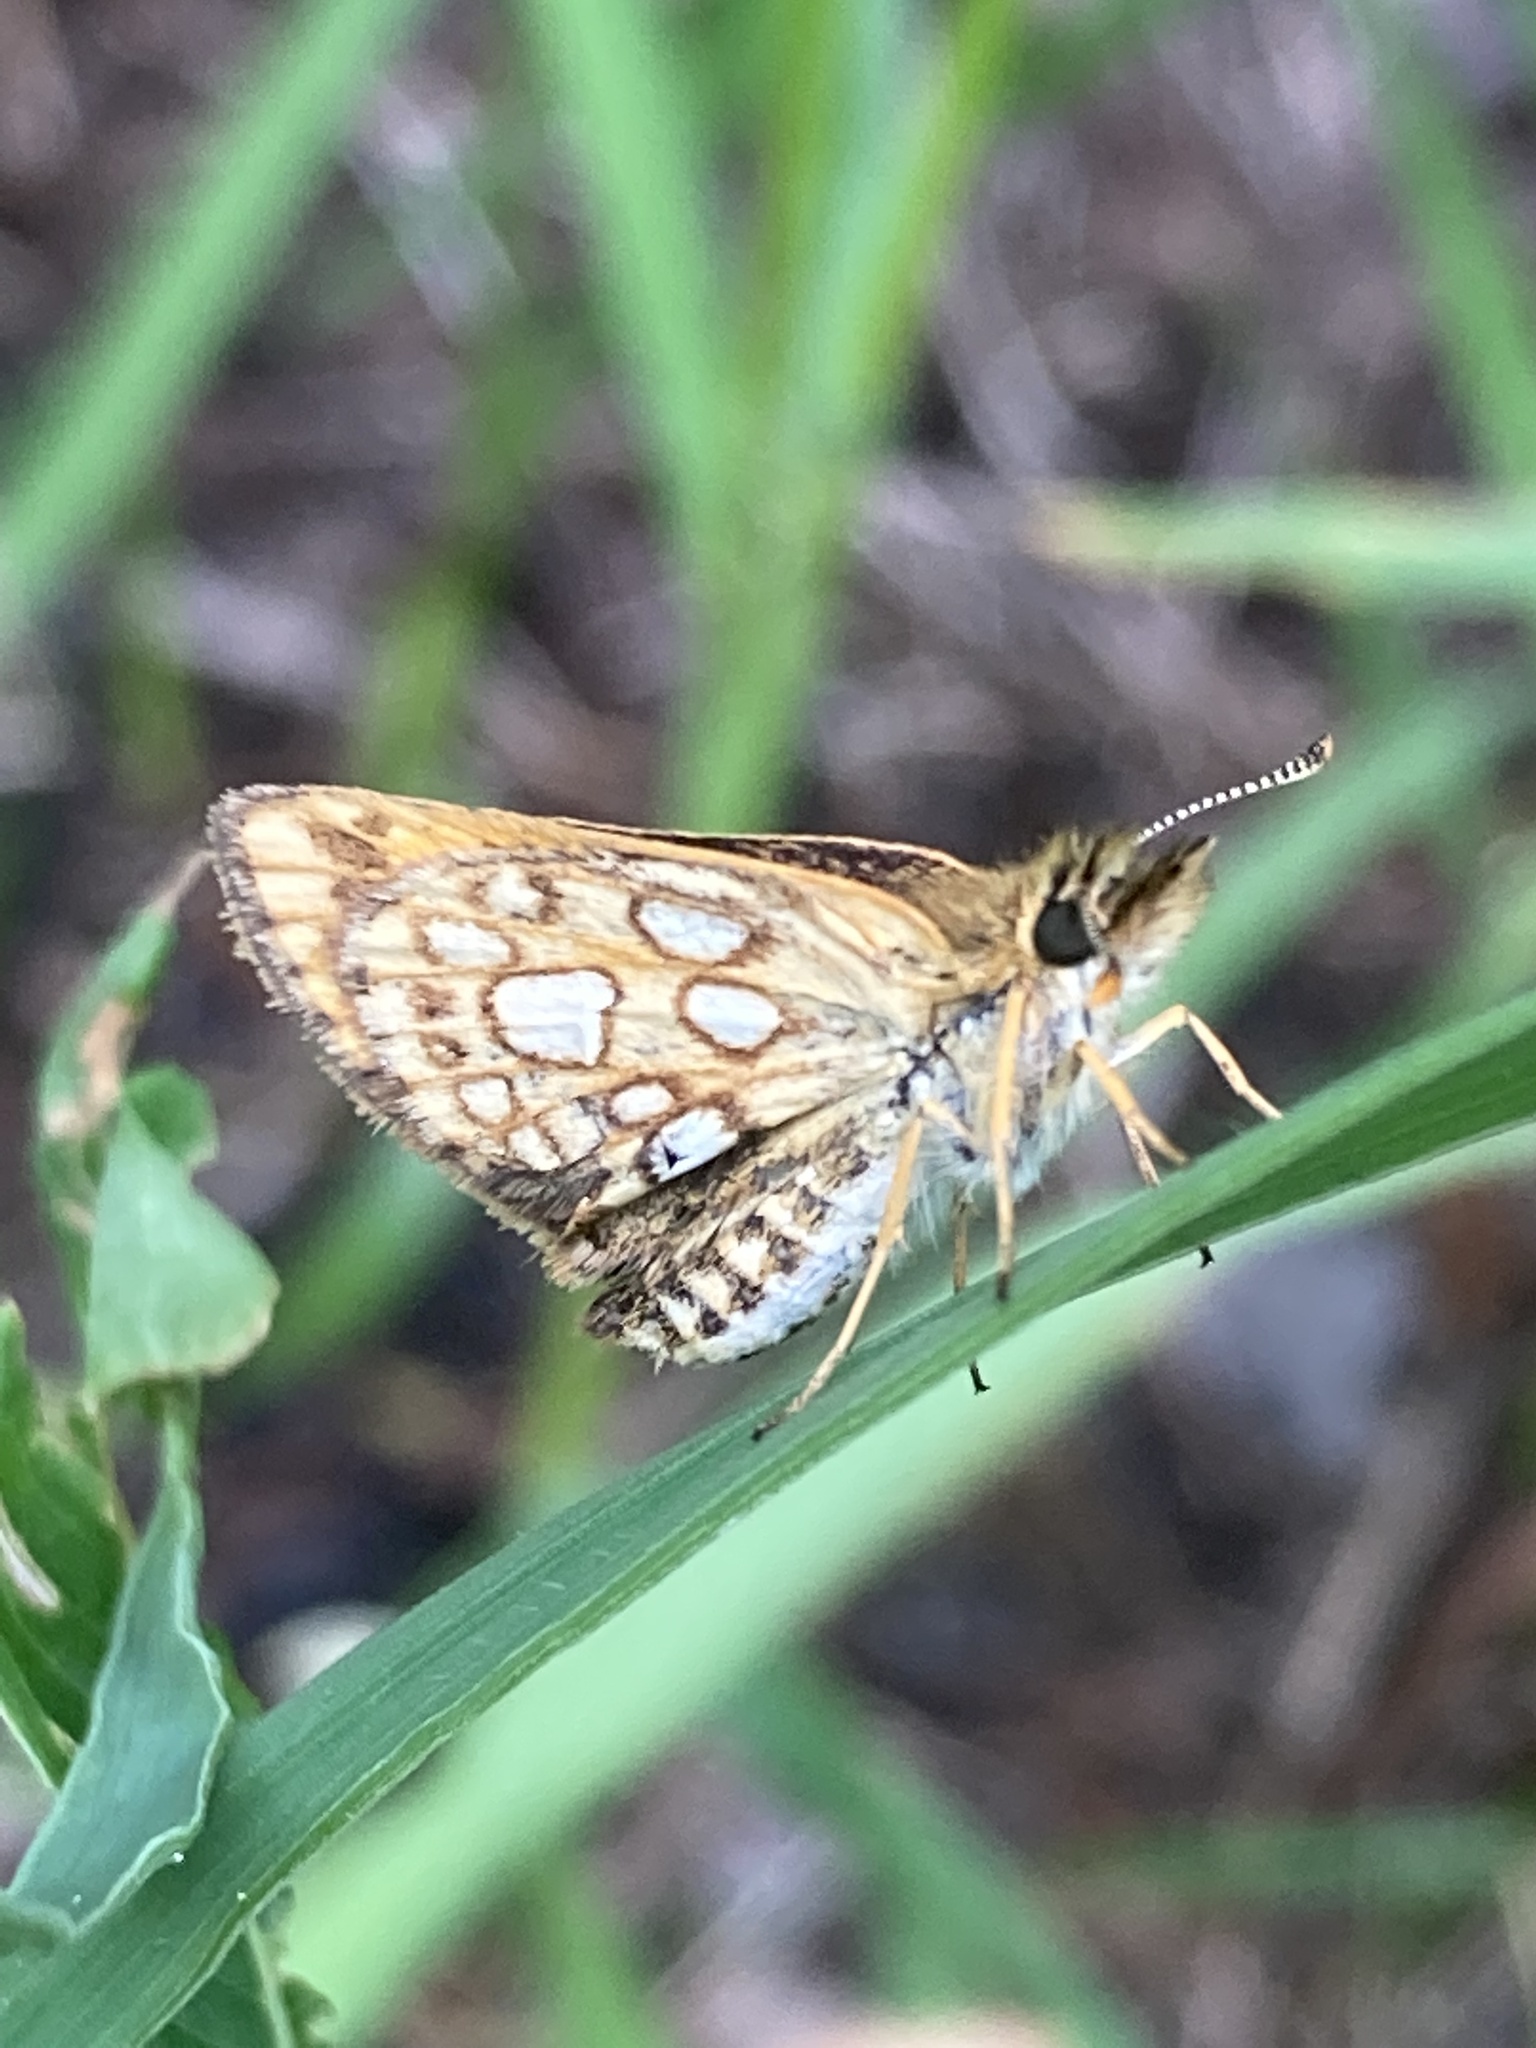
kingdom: Animalia
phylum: Arthropoda
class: Insecta
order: Lepidoptera
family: Hesperiidae
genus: Carterocephalus
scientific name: Carterocephalus mandan
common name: Arctic skipperling
